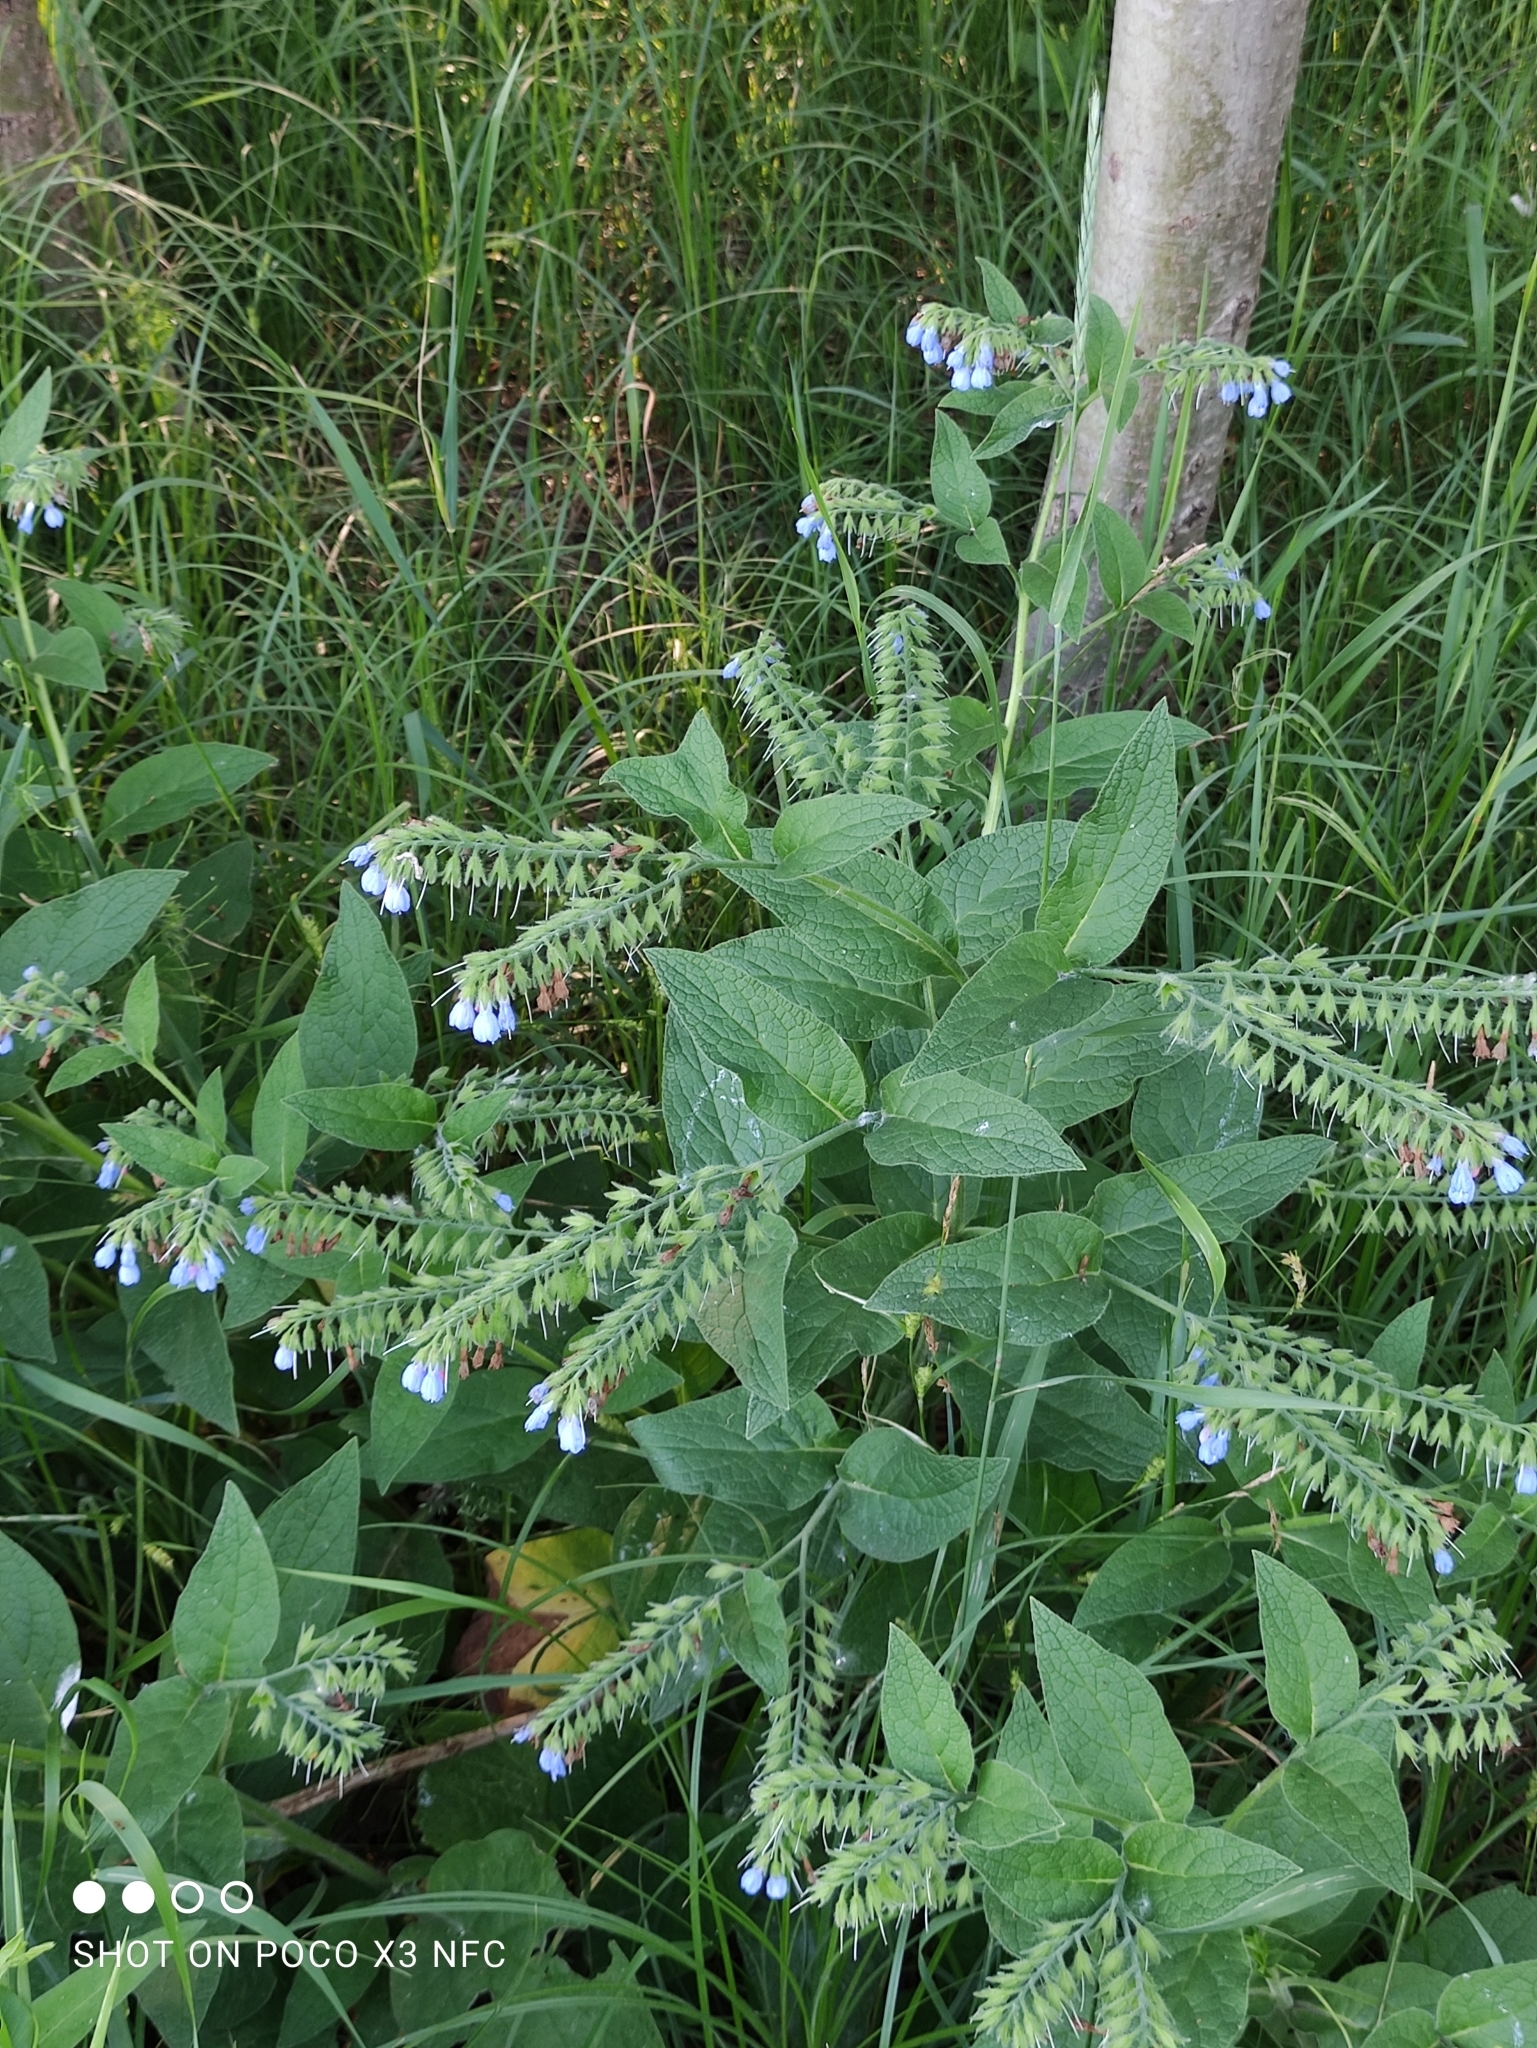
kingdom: Plantae
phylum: Tracheophyta
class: Magnoliopsida
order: Boraginales
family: Boraginaceae
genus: Symphytum
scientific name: Symphytum caucasicum
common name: Caucasian comfrey
